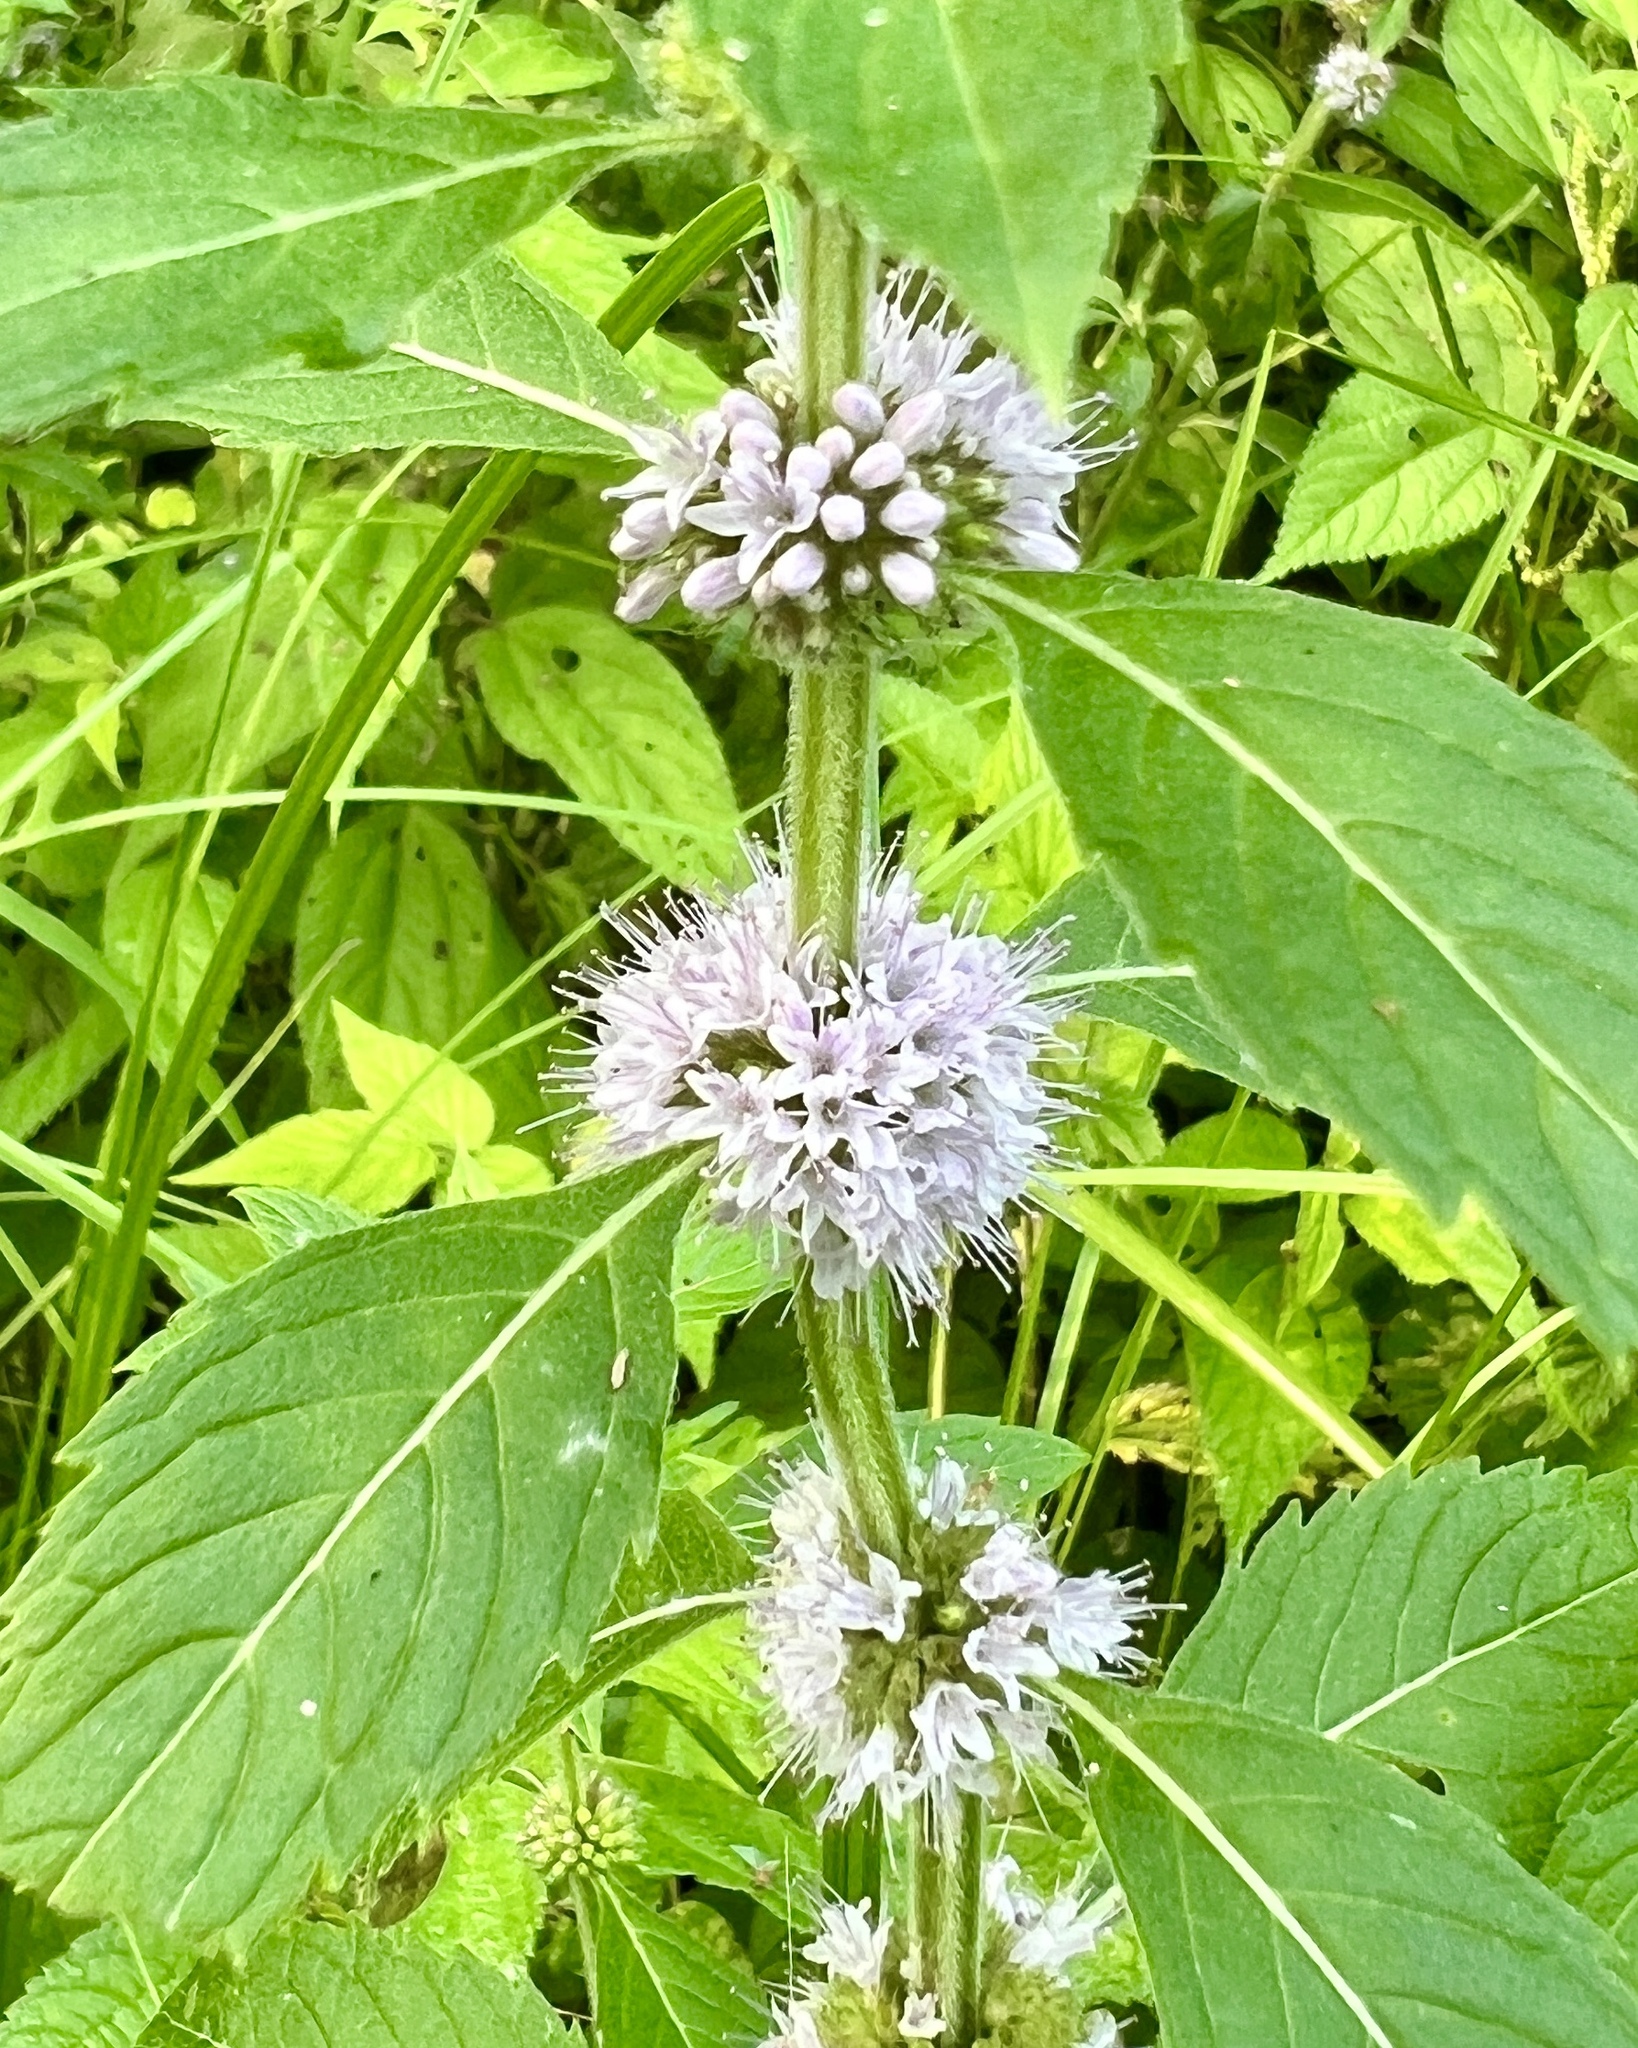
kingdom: Plantae
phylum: Tracheophyta
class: Magnoliopsida
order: Lamiales
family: Lamiaceae
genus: Mentha
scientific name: Mentha canadensis
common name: American corn mint
